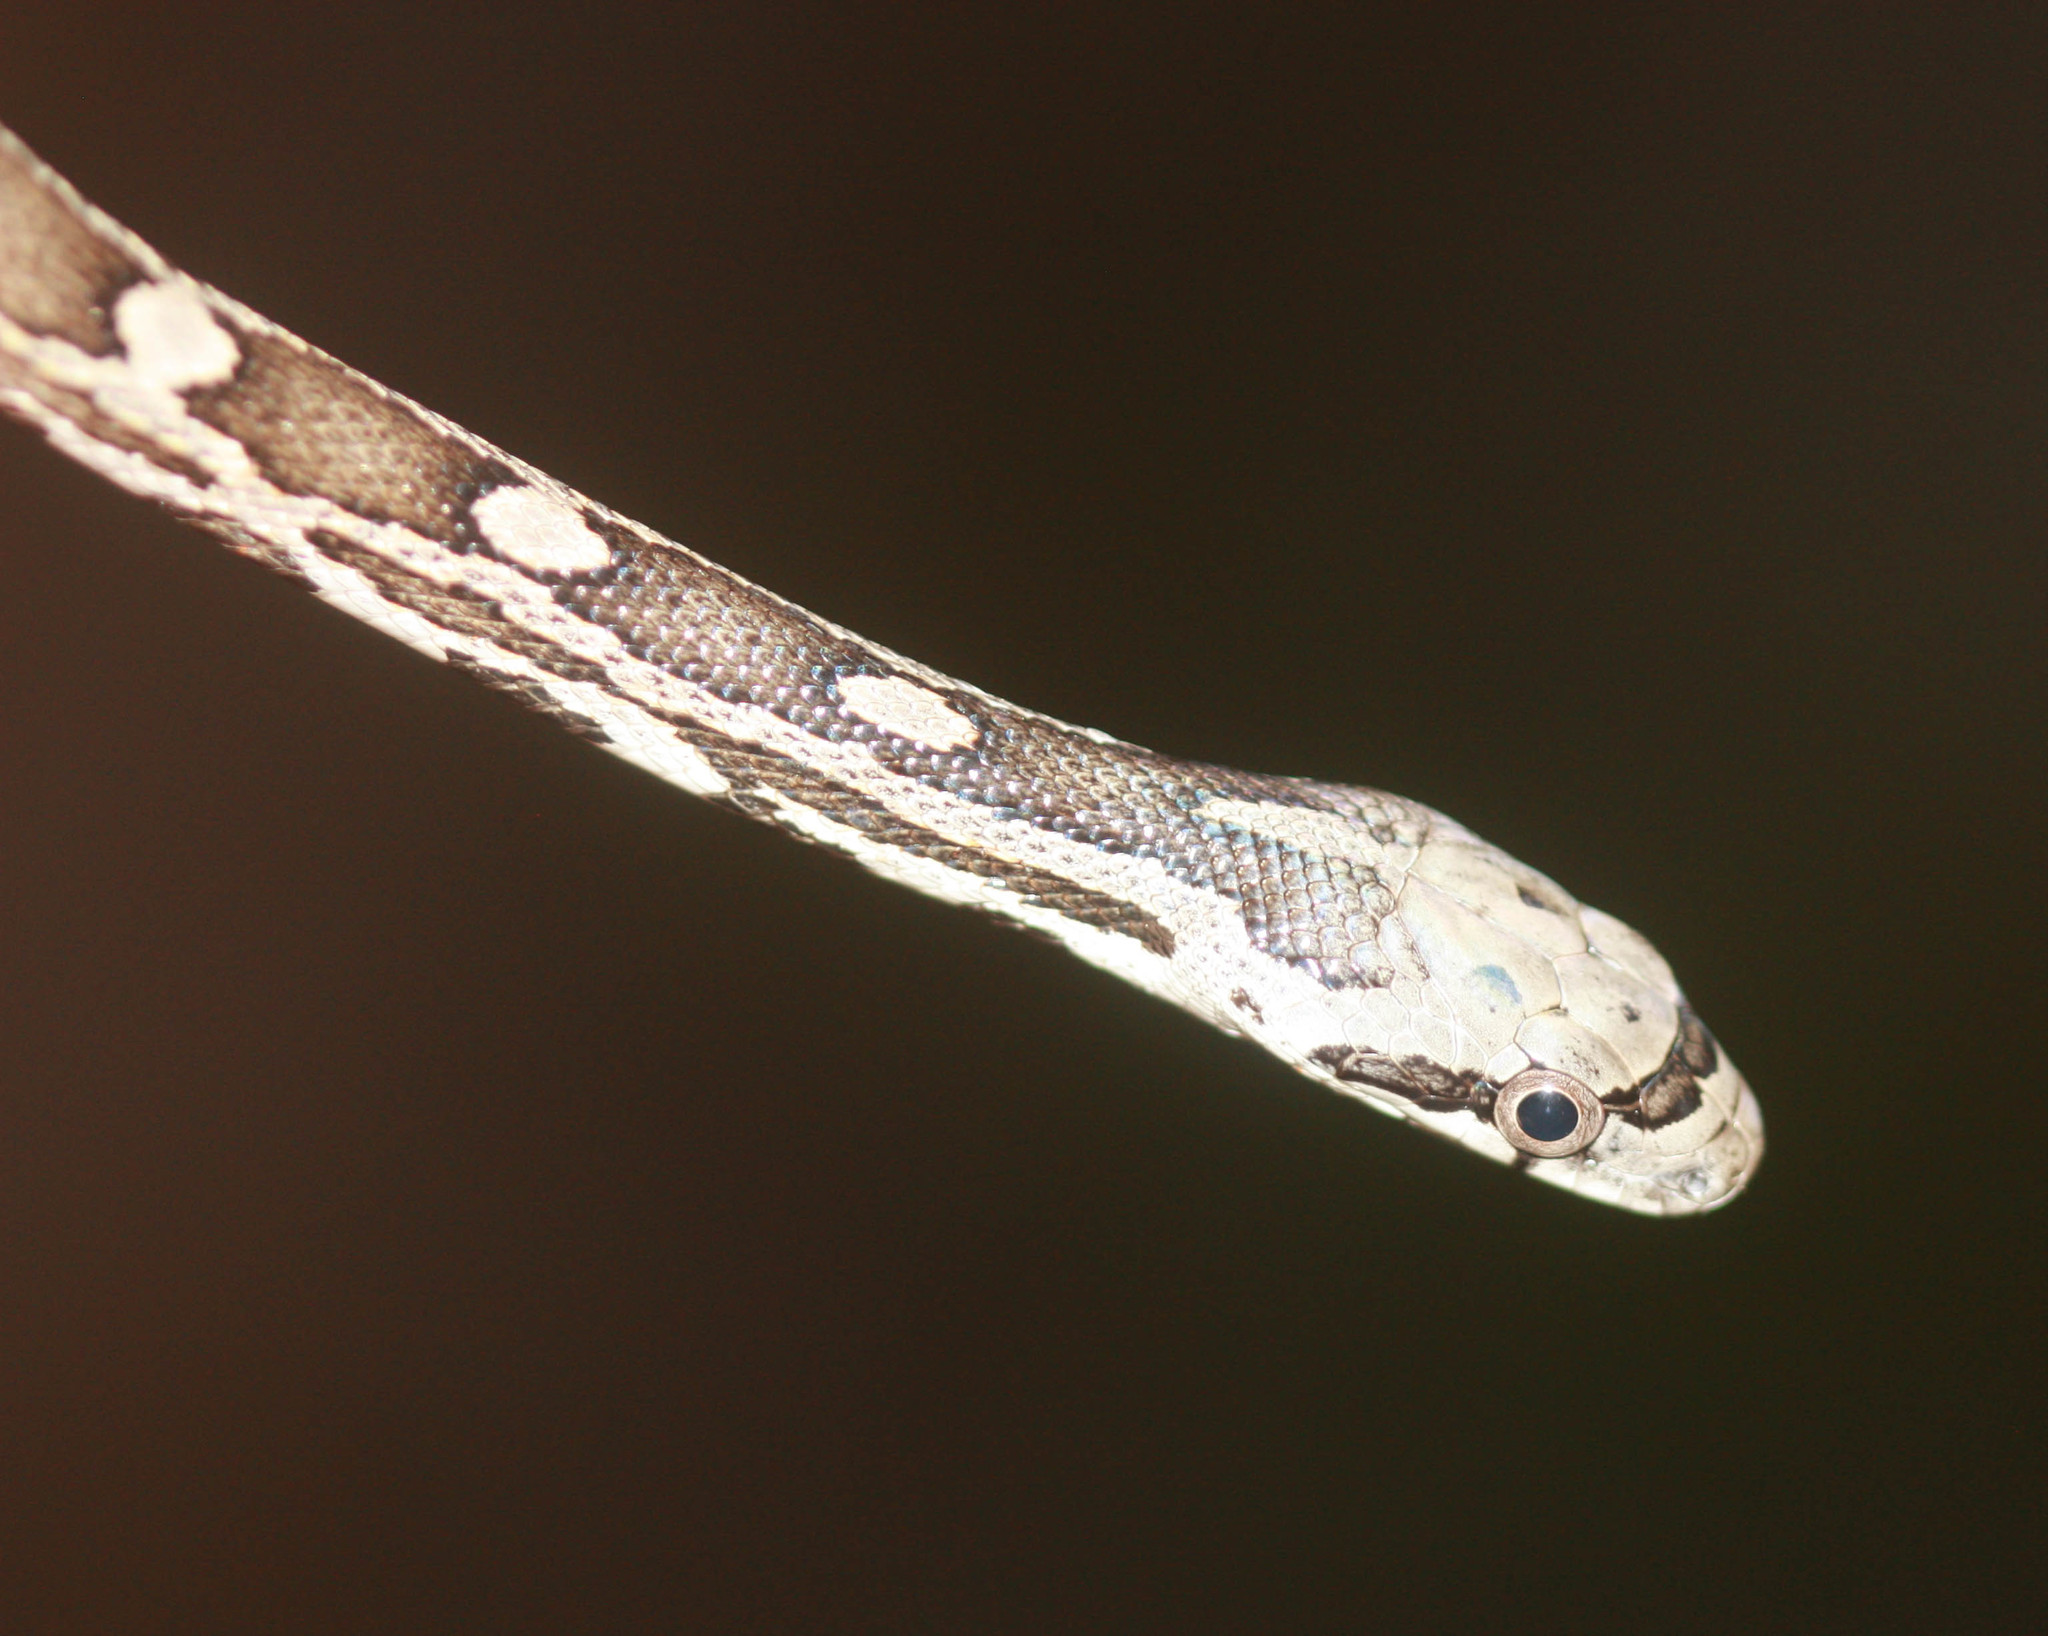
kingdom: Animalia
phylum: Chordata
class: Squamata
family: Colubridae
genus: Pantherophis
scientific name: Pantherophis obsoletus
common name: Black rat snake
